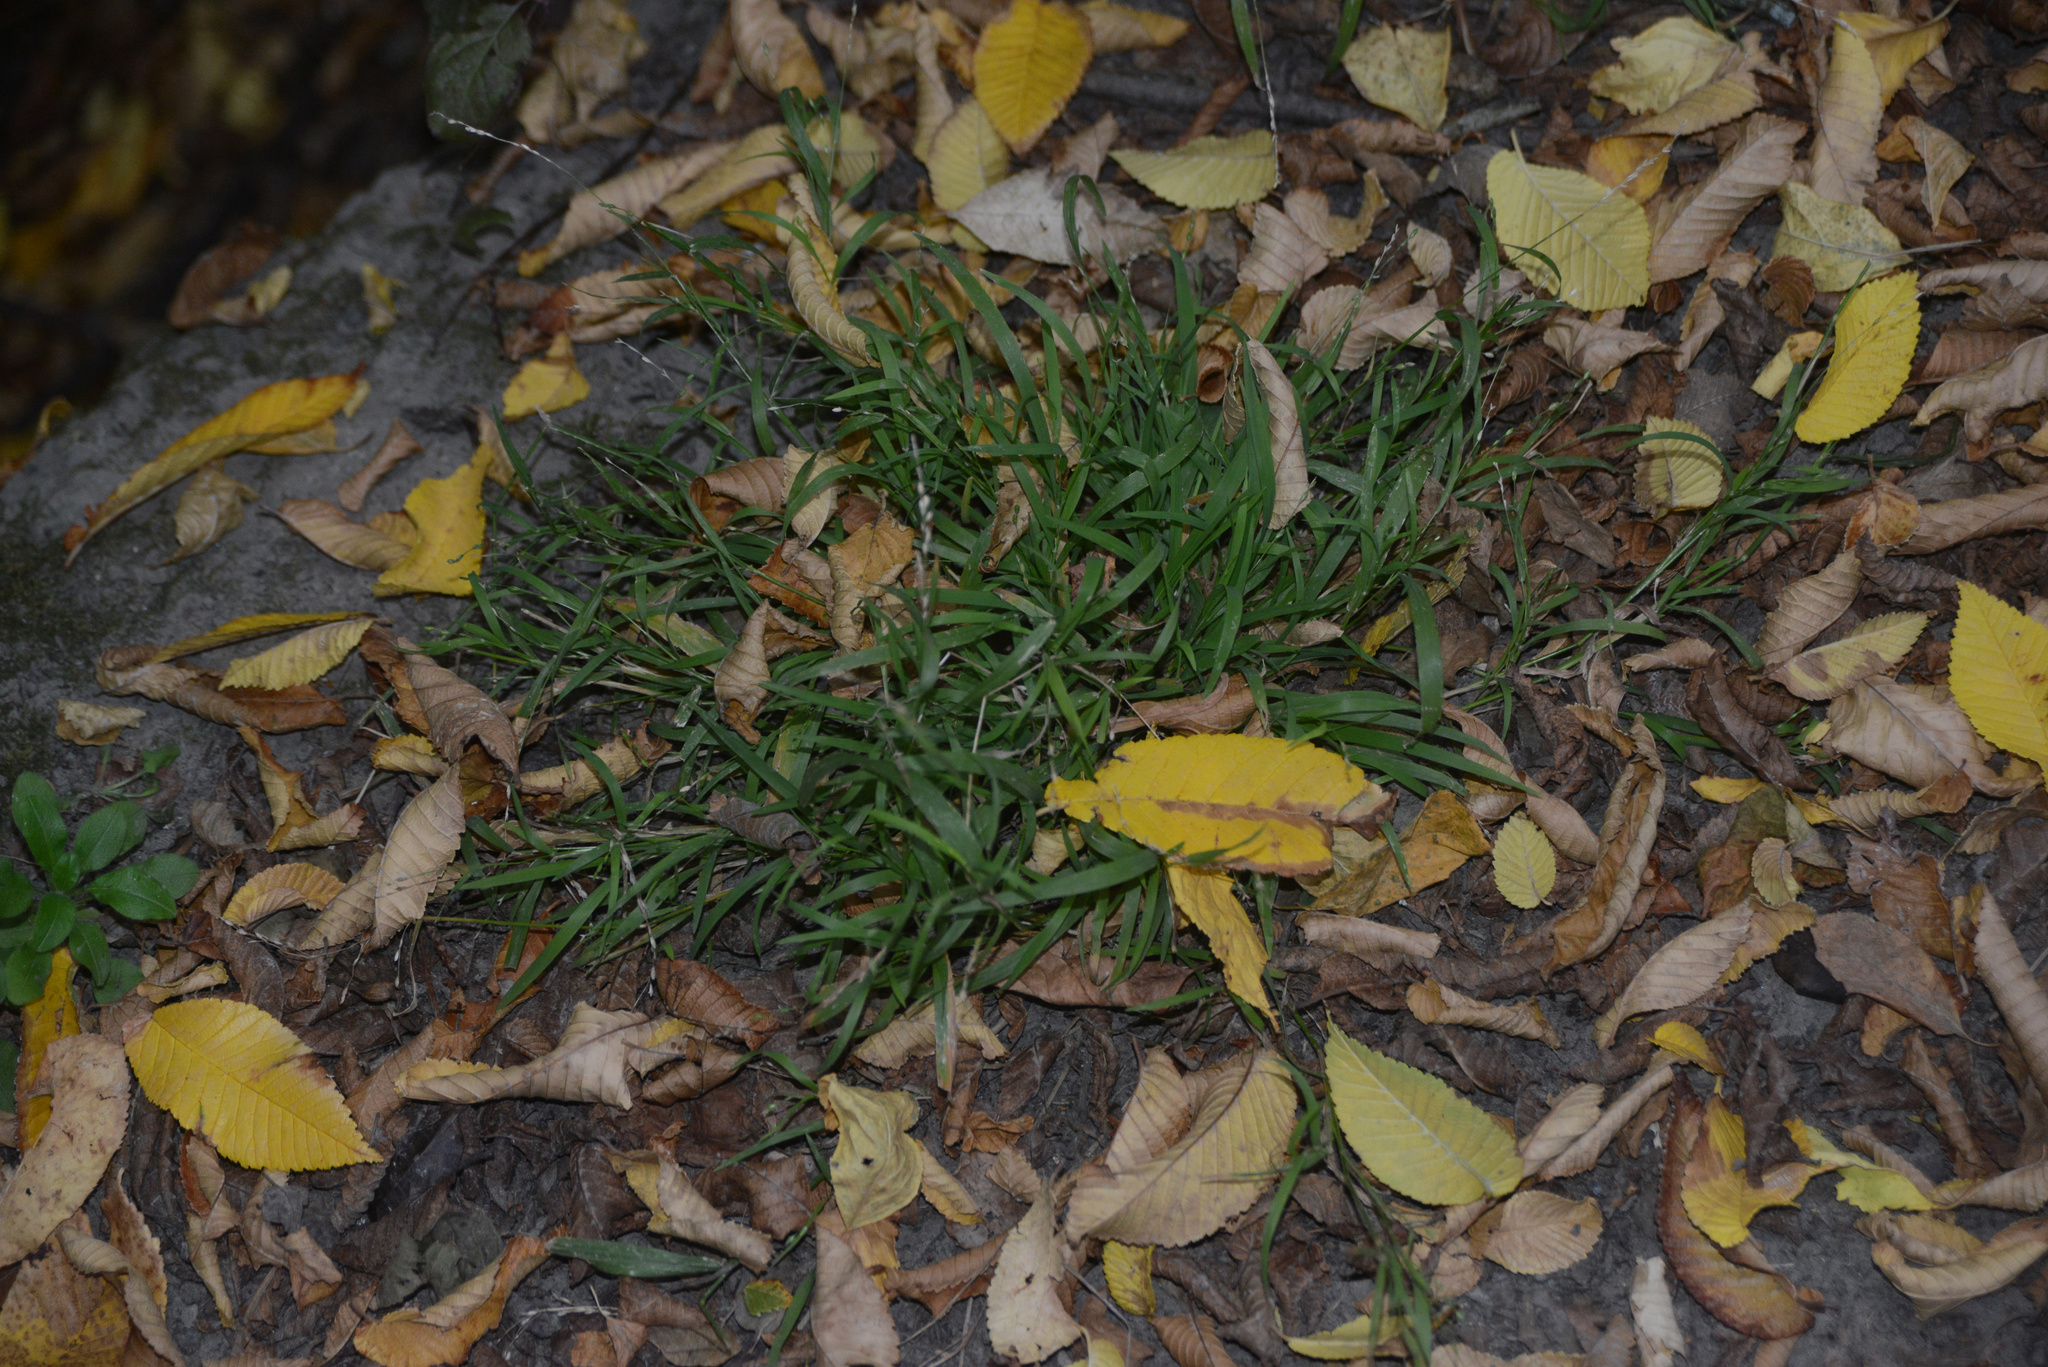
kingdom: Plantae
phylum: Tracheophyta
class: Liliopsida
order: Poales
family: Poaceae
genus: Ehrharta
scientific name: Ehrharta erecta
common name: Panic veldtgrass
